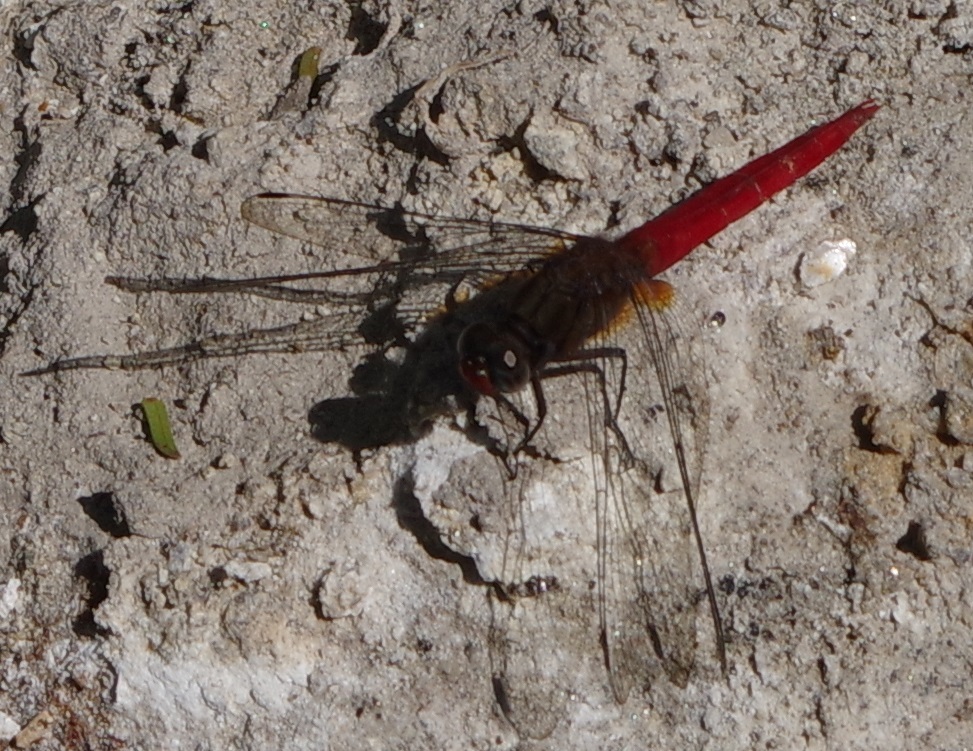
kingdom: Animalia
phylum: Arthropoda
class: Insecta
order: Odonata
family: Libellulidae
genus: Orthetrum
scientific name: Orthetrum chrysis
